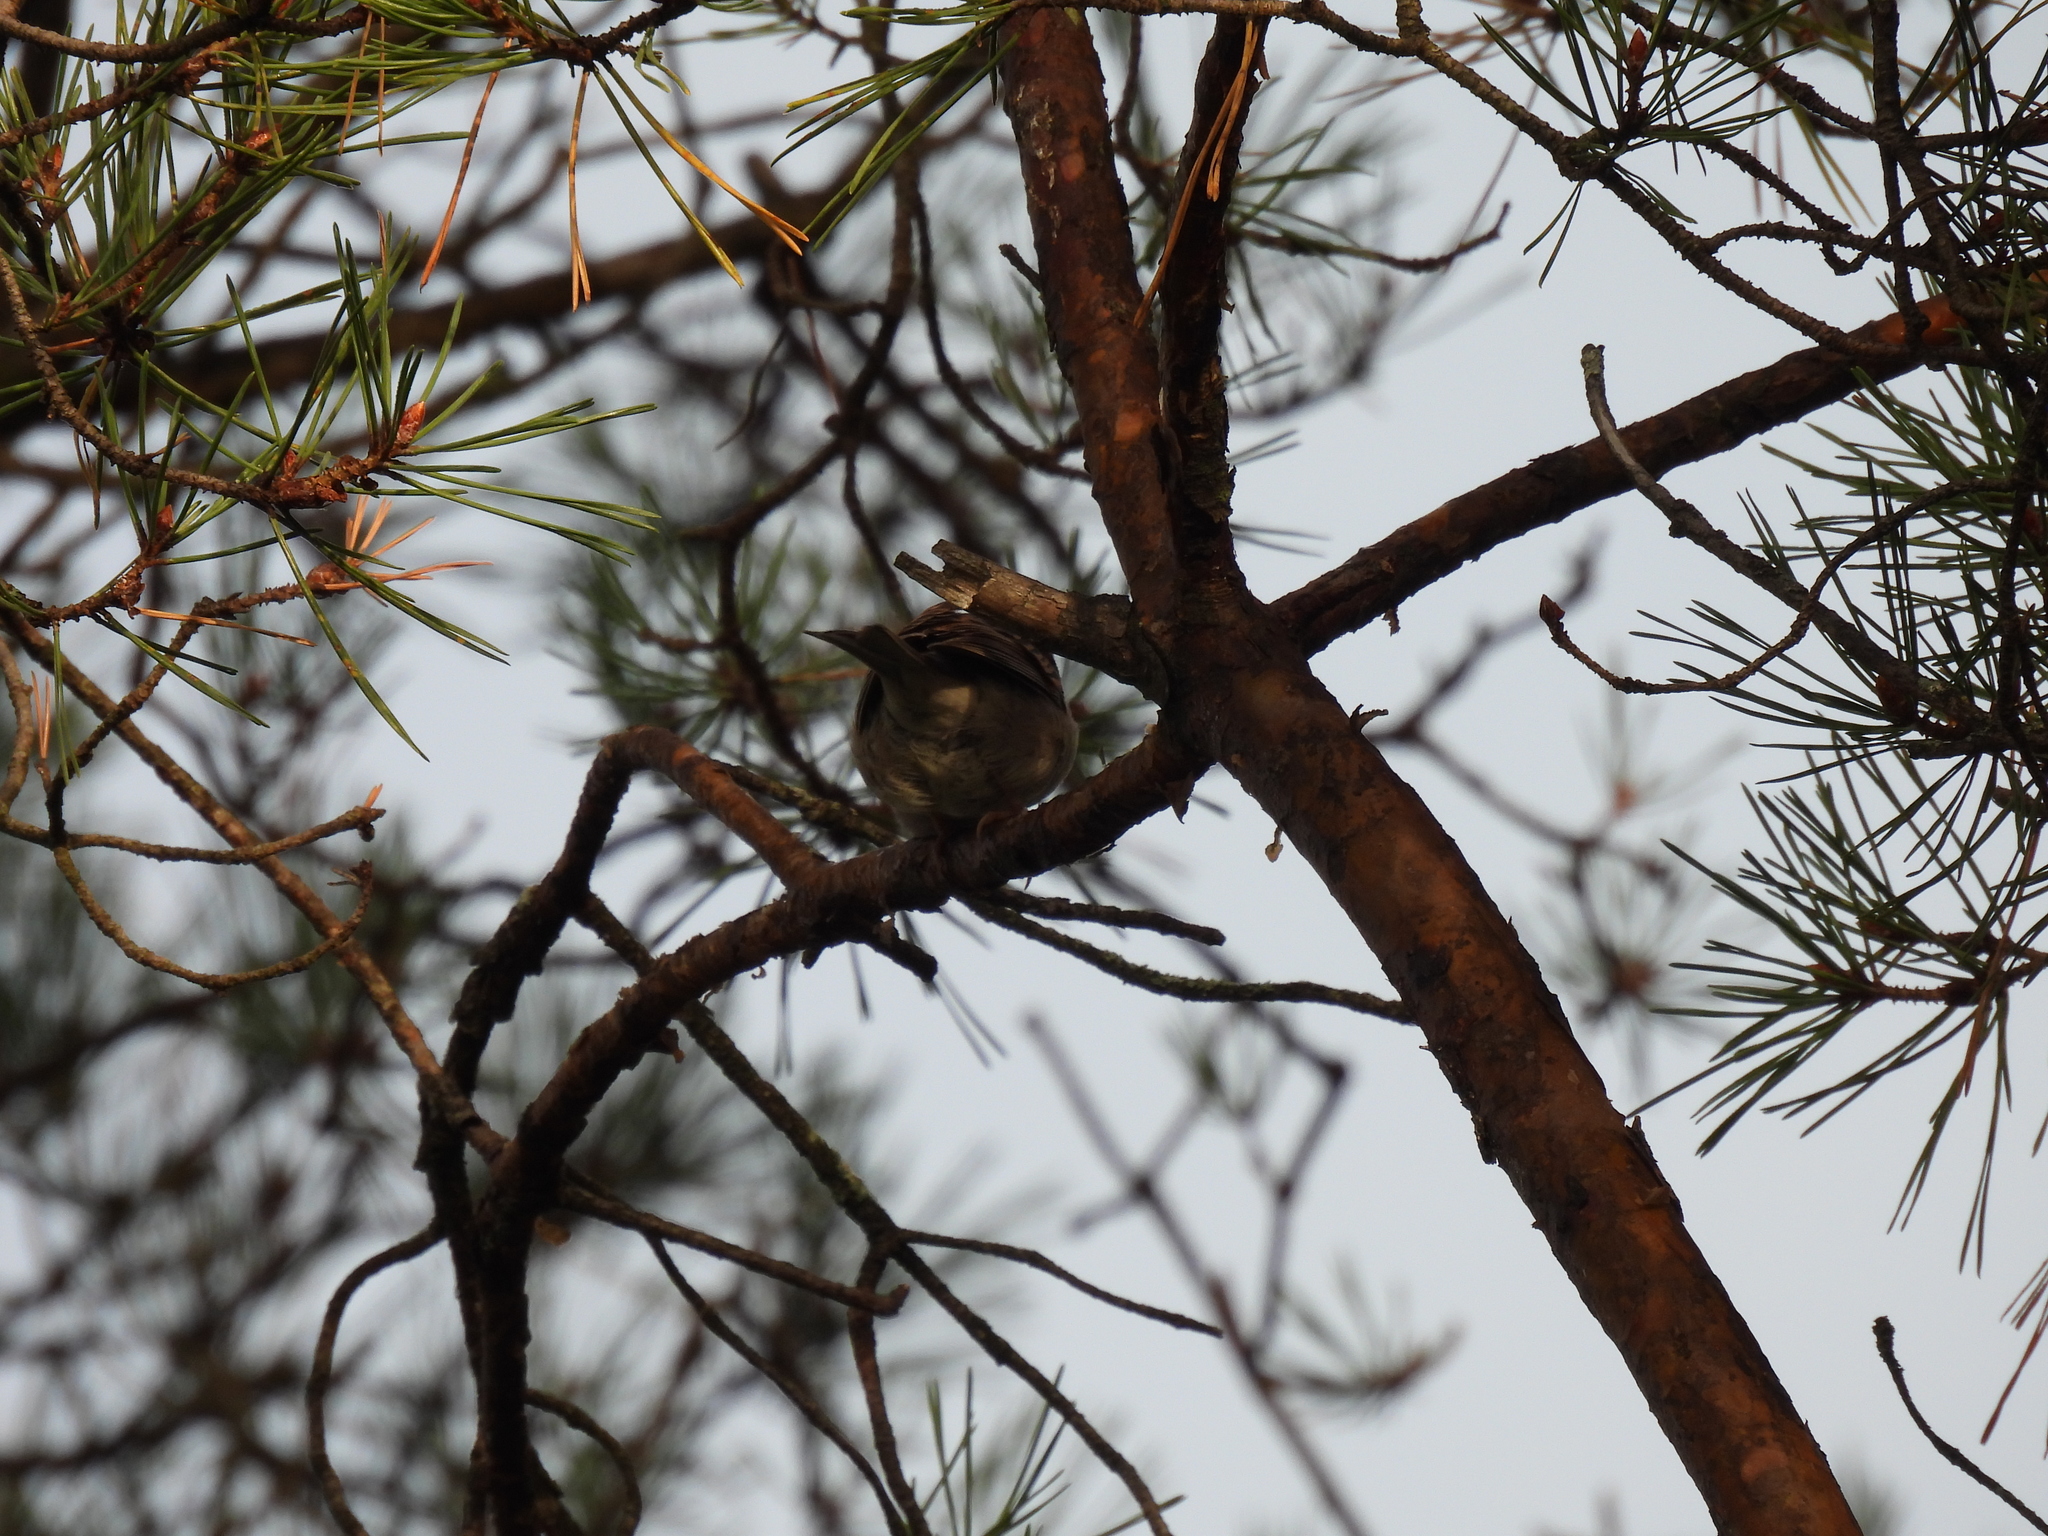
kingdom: Animalia
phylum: Chordata
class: Aves
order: Passeriformes
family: Passerellidae
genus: Spizella
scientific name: Spizella passerina
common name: Chipping sparrow
